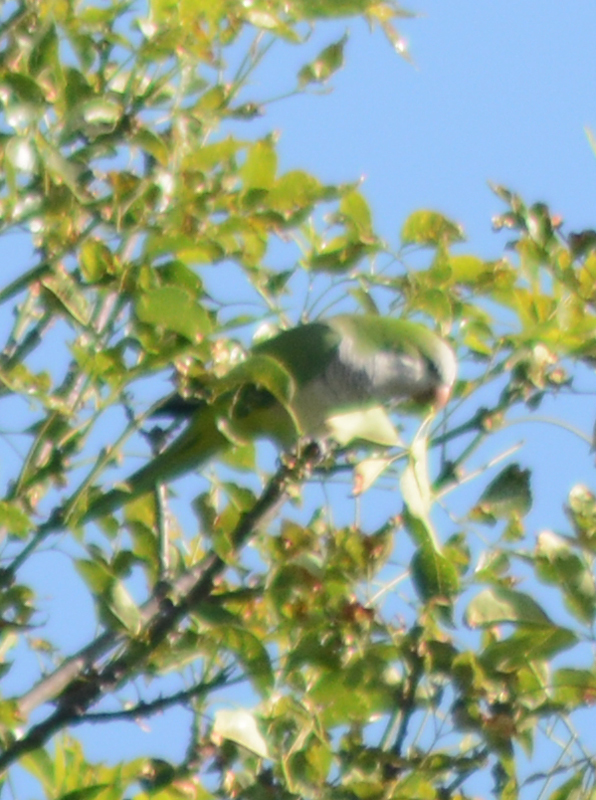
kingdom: Animalia
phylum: Chordata
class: Aves
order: Psittaciformes
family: Psittacidae
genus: Myiopsitta
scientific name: Myiopsitta monachus
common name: Monk parakeet
